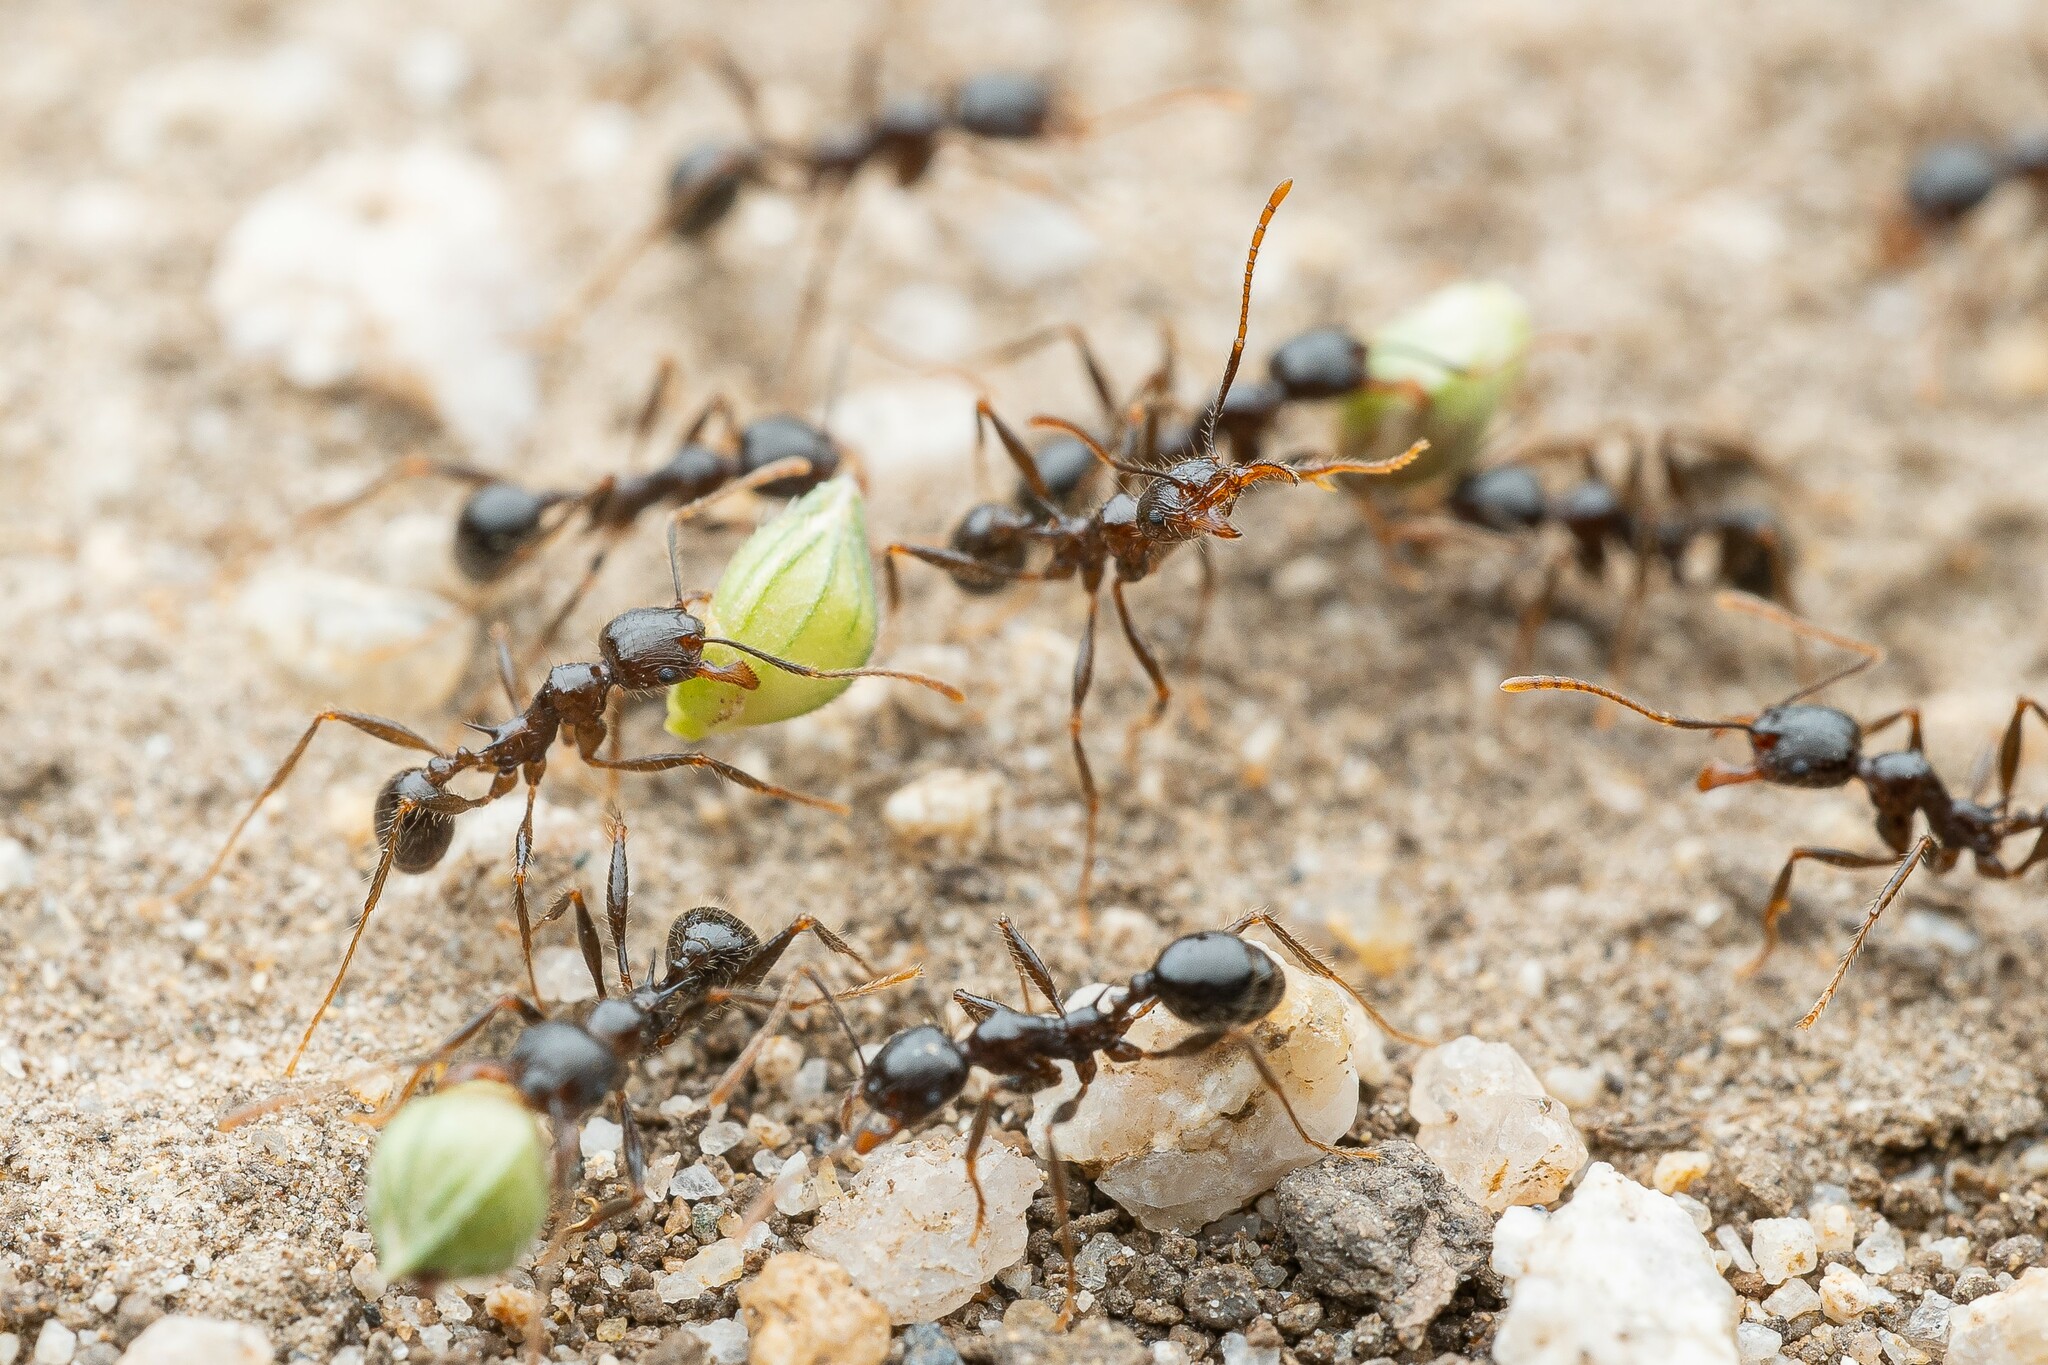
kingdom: Animalia
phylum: Arthropoda
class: Insecta
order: Hymenoptera
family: Formicidae
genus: Pheidole
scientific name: Pheidole rhea
